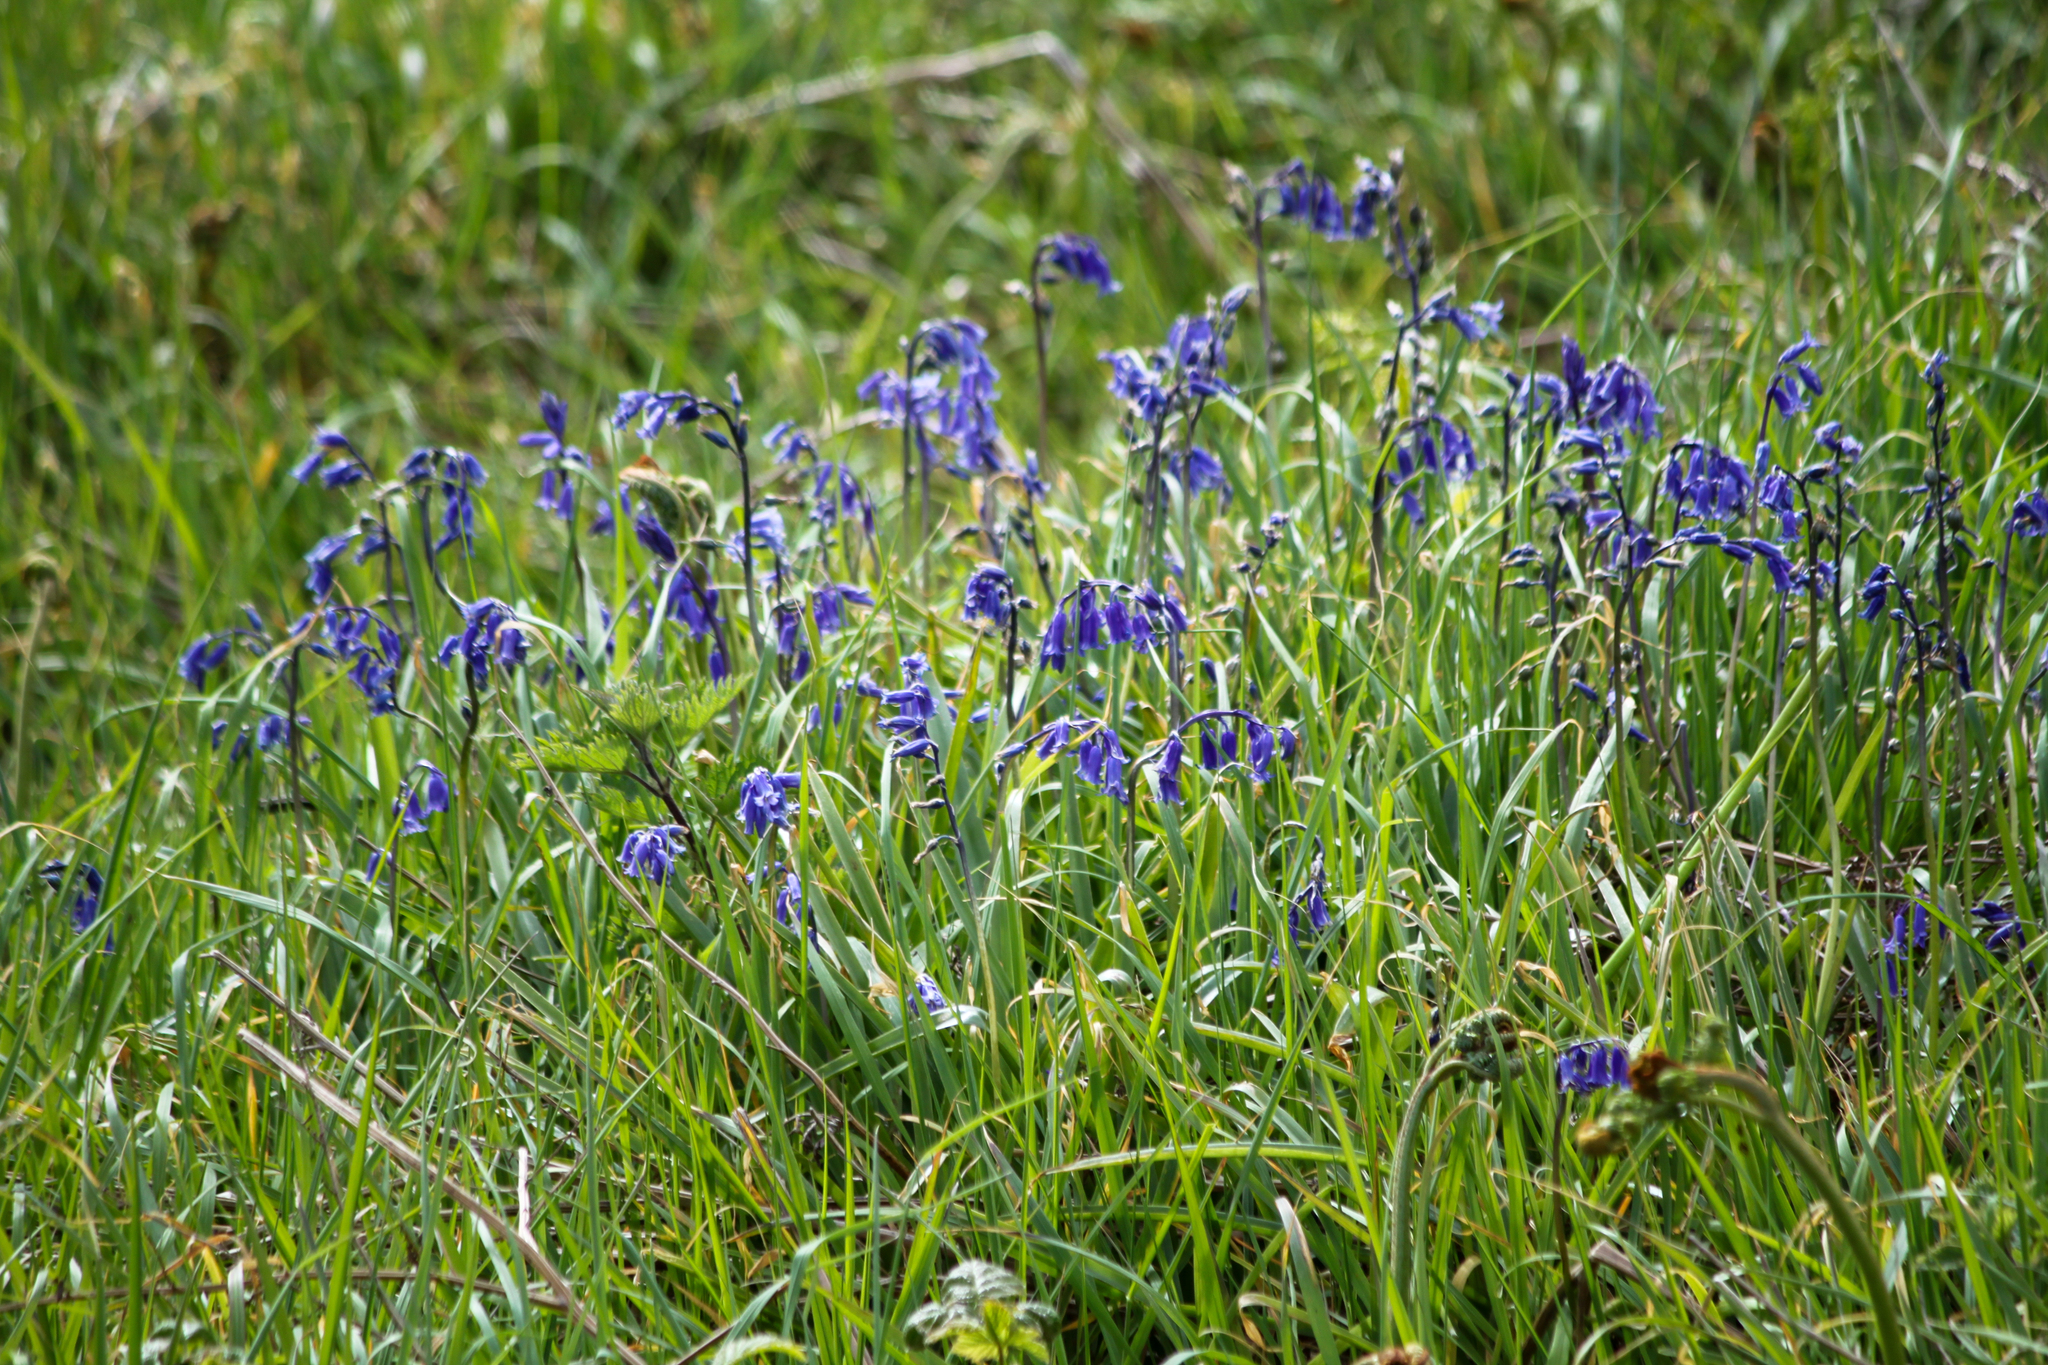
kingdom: Plantae
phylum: Tracheophyta
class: Liliopsida
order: Asparagales
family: Asparagaceae
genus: Hyacinthoides
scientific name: Hyacinthoides non-scripta
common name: Bluebell
